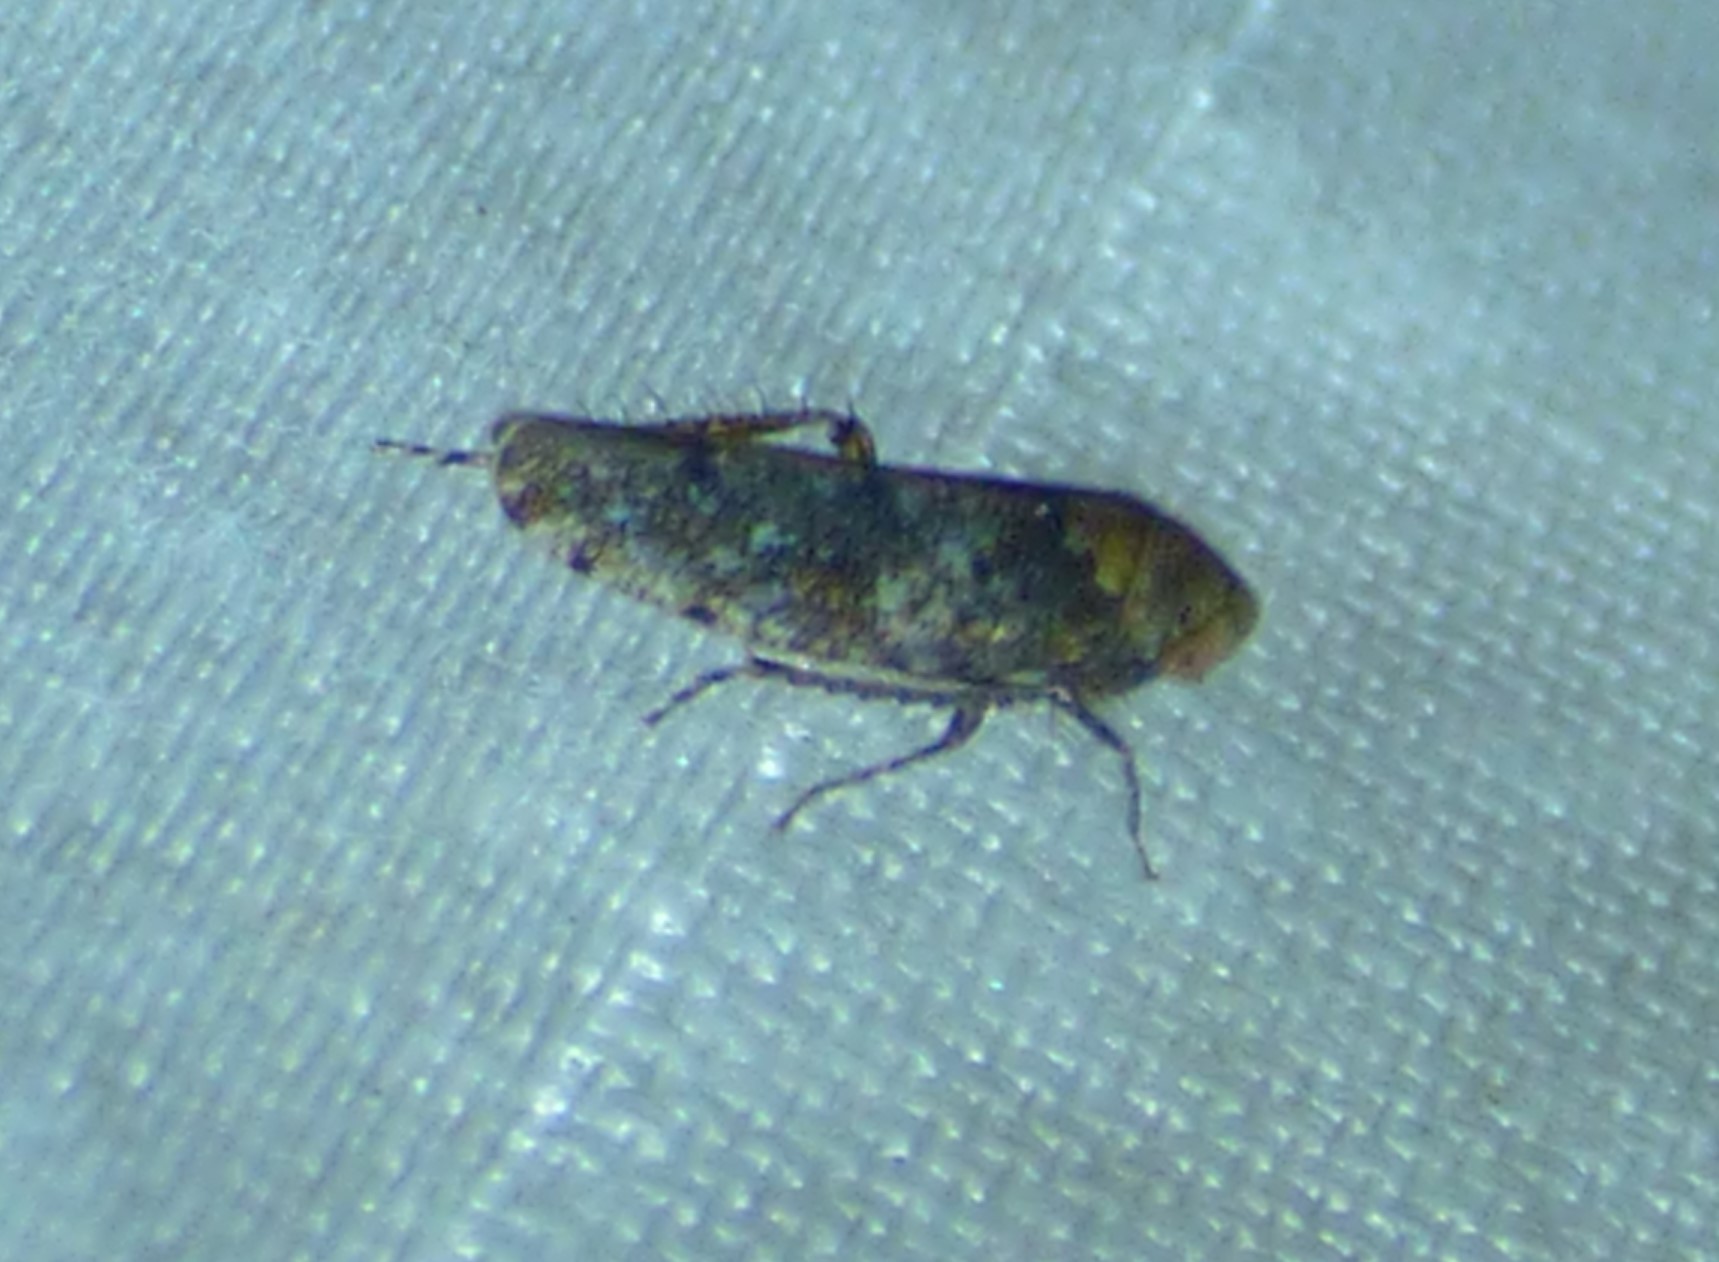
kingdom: Animalia
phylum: Arthropoda
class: Insecta
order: Hemiptera
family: Cicadellidae
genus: Paraphlepsius
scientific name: Paraphlepsius collitus
